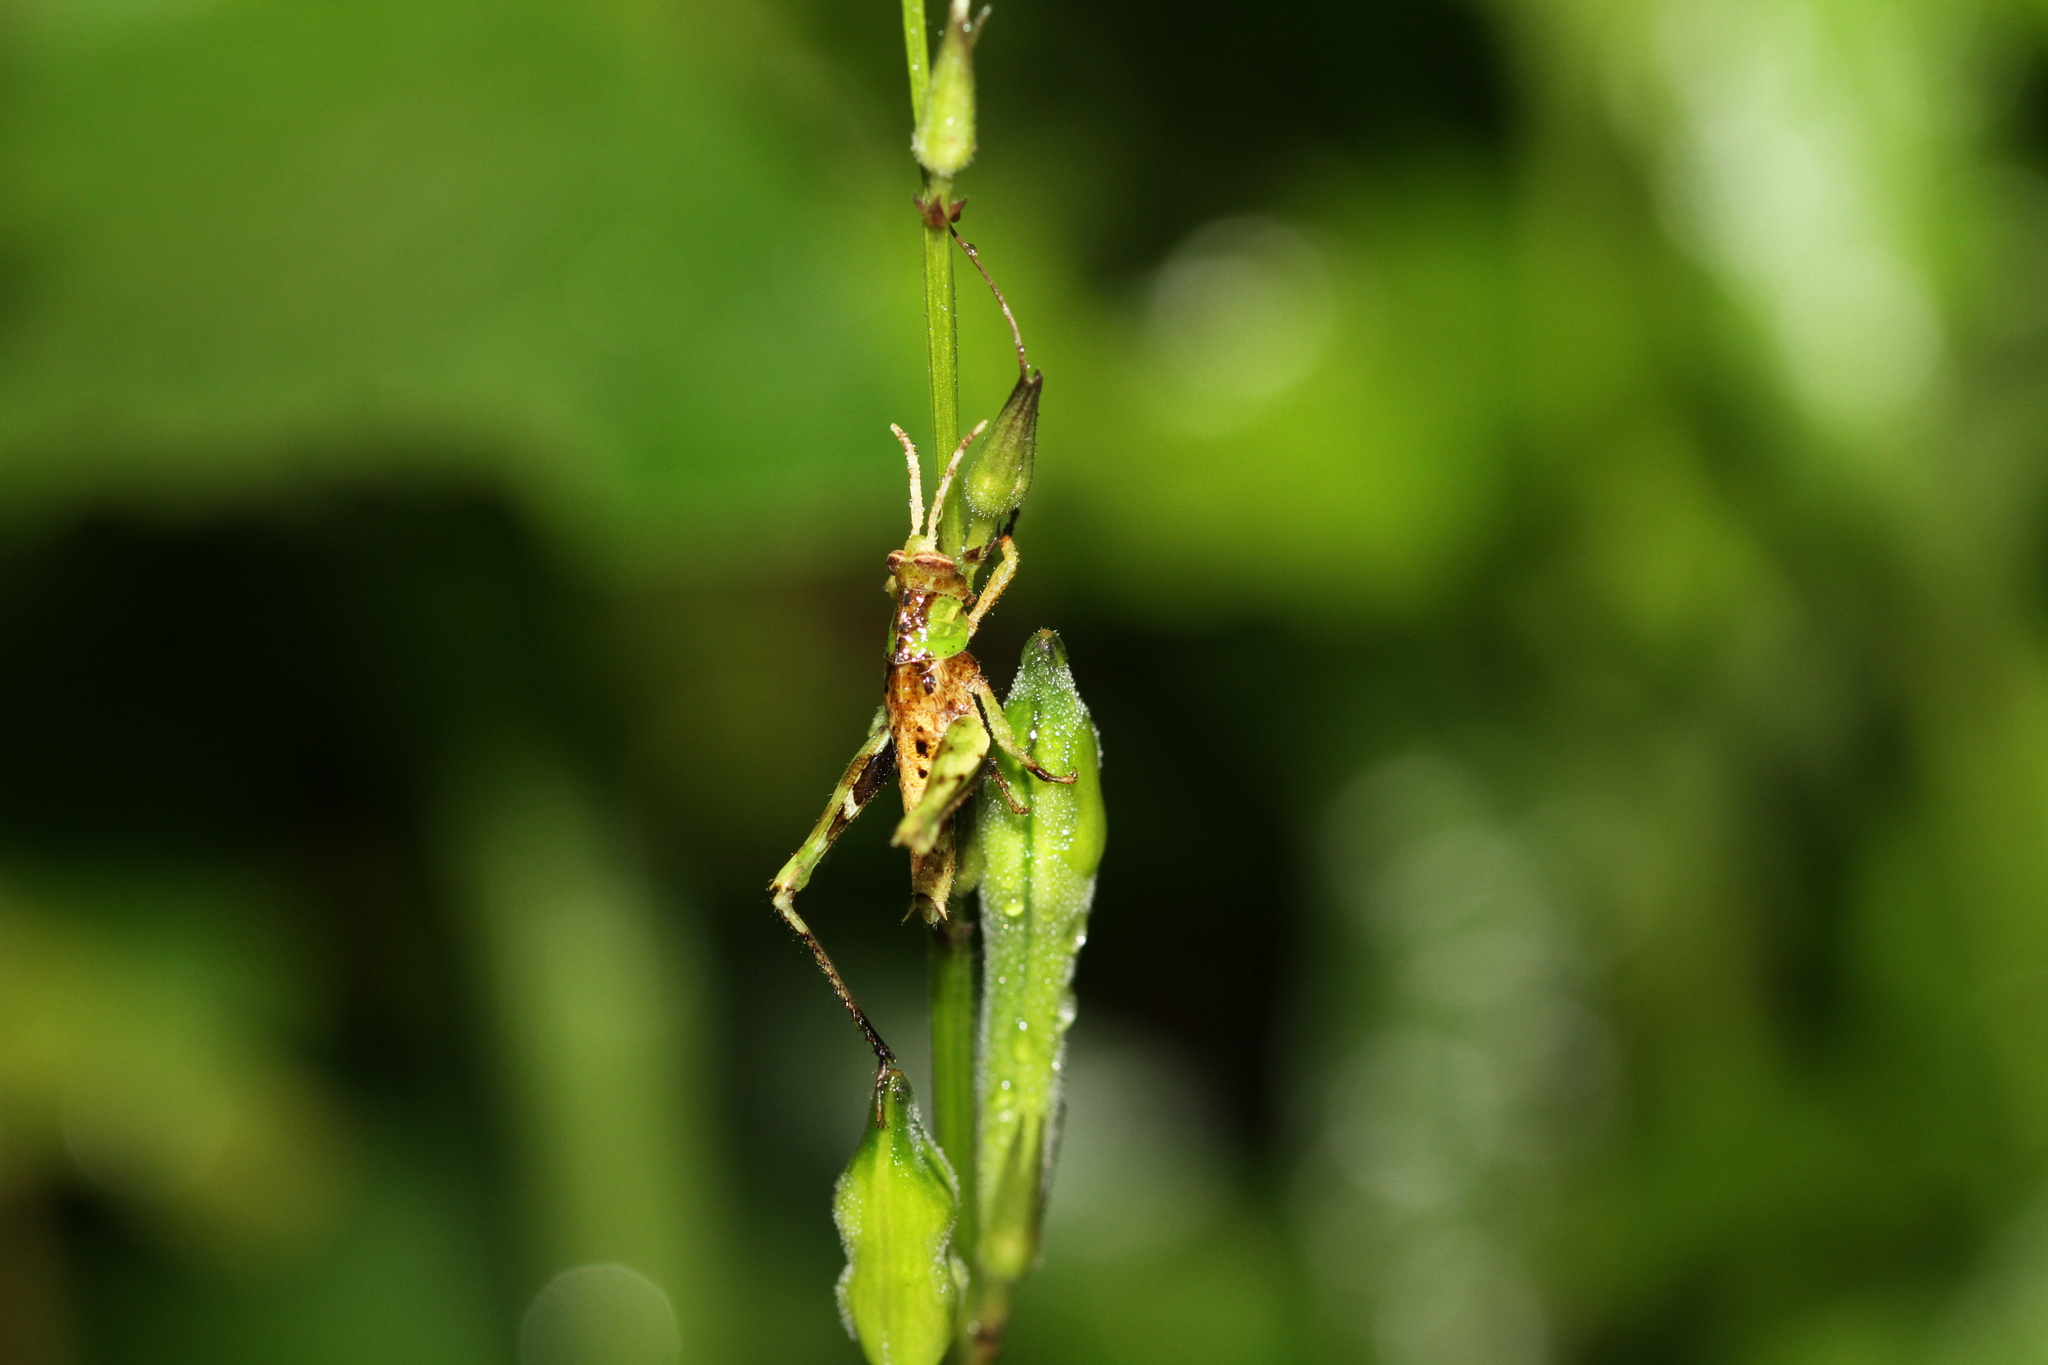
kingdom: Animalia
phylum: Arthropoda
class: Insecta
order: Orthoptera
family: Acrididae
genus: Coptacra
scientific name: Coptacra foedata
